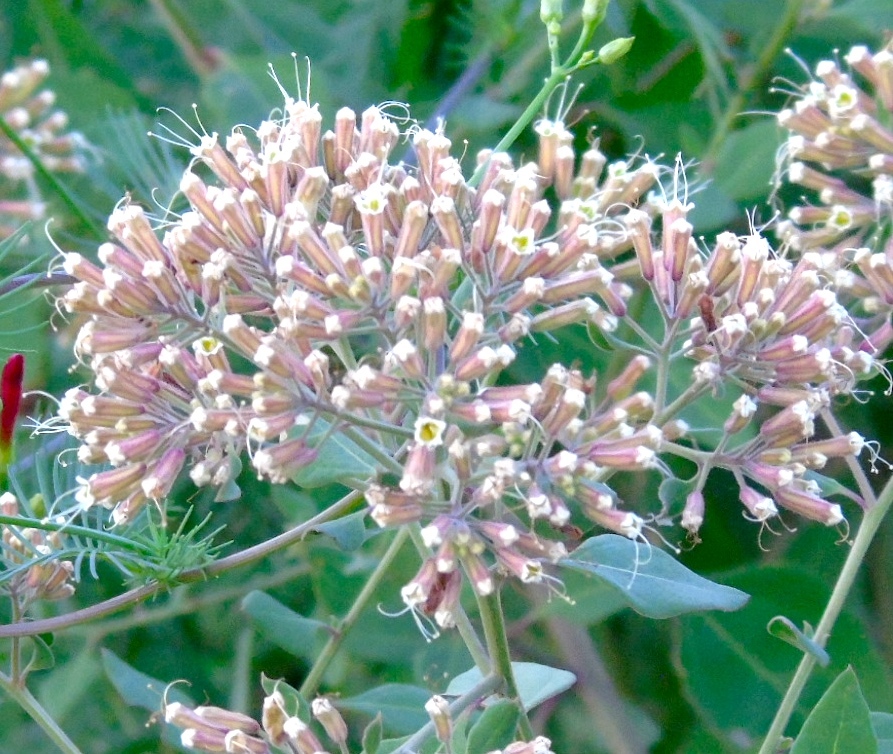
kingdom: Plantae
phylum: Tracheophyta
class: Magnoliopsida
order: Caryophyllales
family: Nyctaginaceae
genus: Salpianthus
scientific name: Salpianthus arenarius
